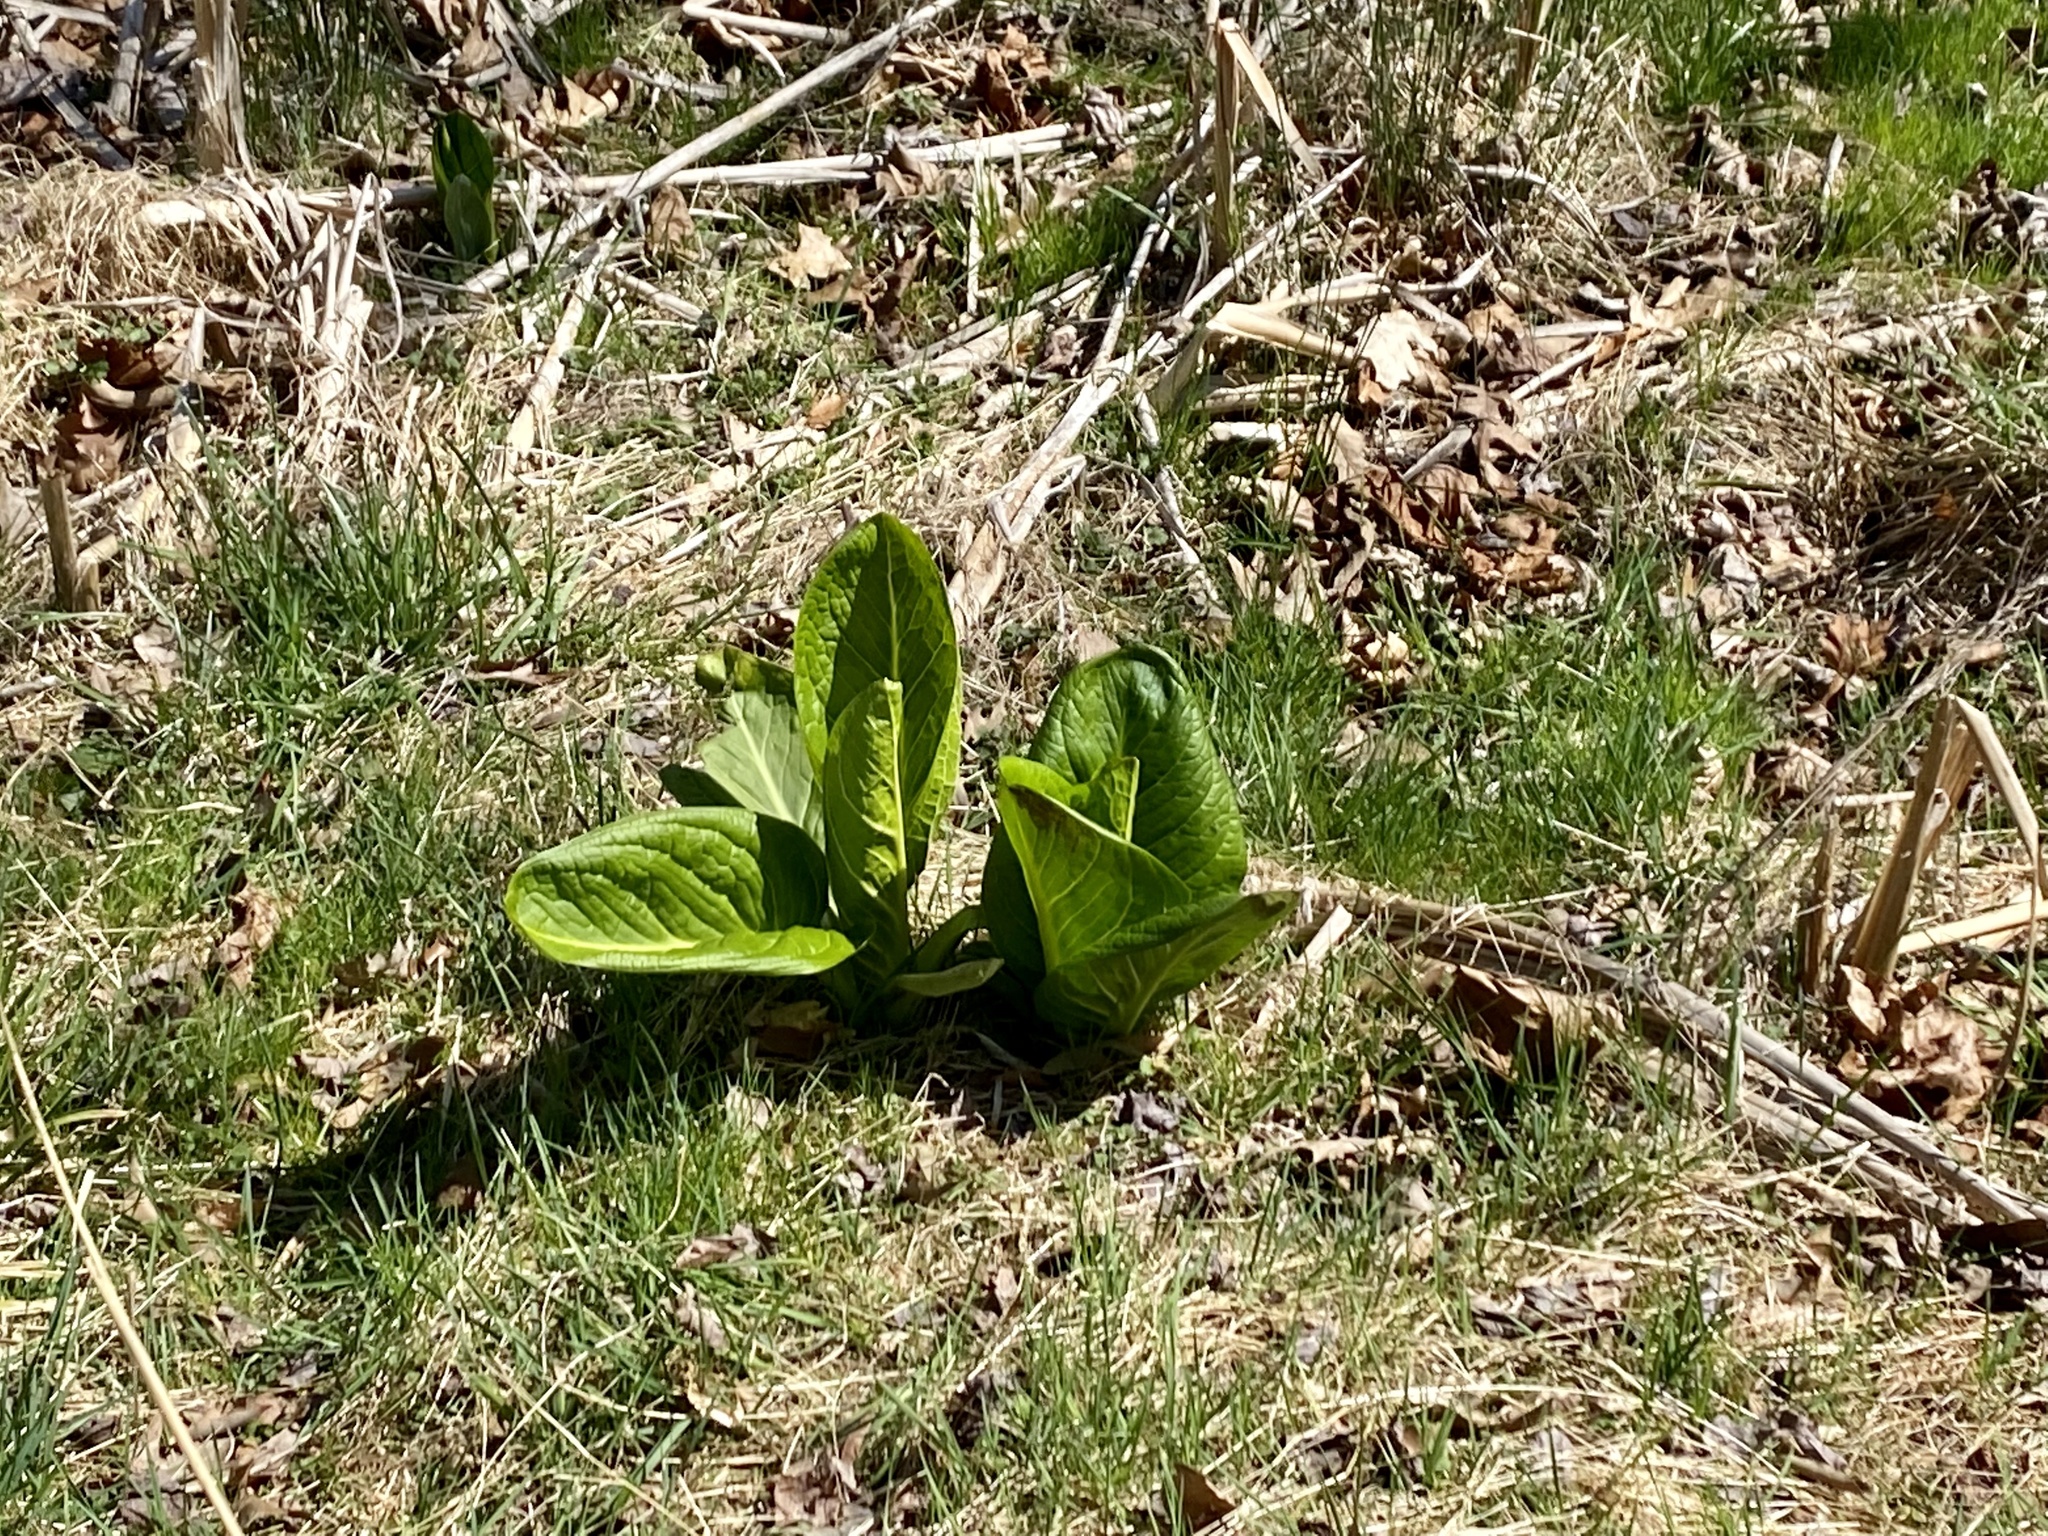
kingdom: Plantae
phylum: Tracheophyta
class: Liliopsida
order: Alismatales
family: Araceae
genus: Symplocarpus
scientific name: Symplocarpus foetidus
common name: Eastern skunk cabbage
